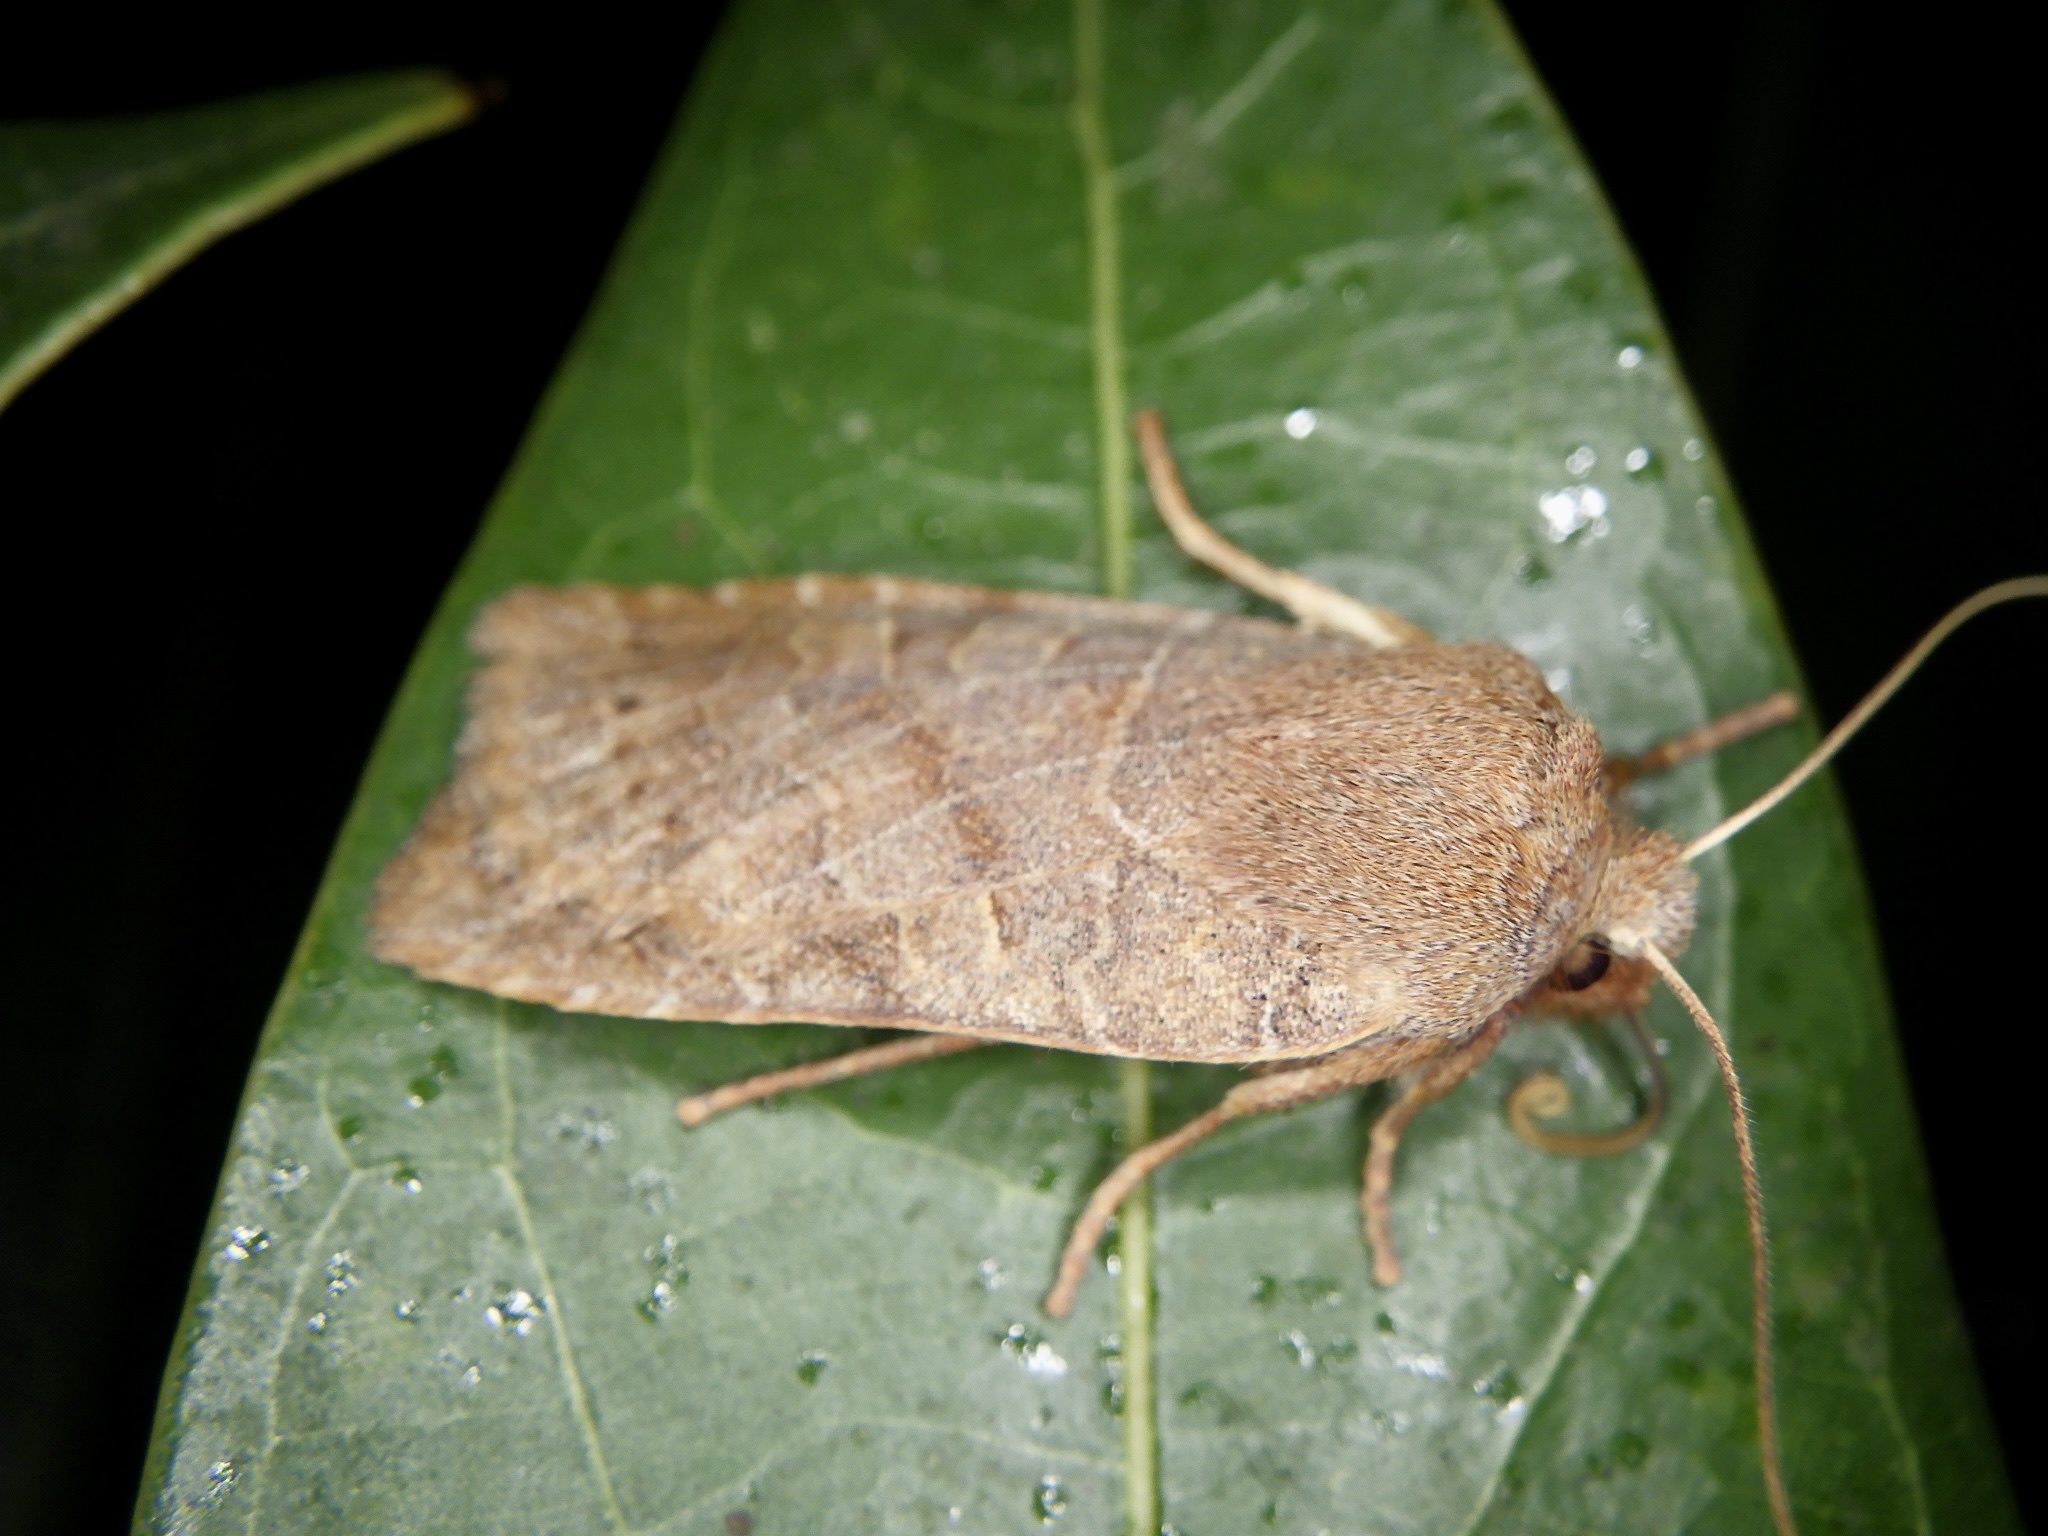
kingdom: Animalia
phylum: Arthropoda
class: Insecta
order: Lepidoptera
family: Noctuidae
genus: Conistra
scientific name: Conistra fletcheri
